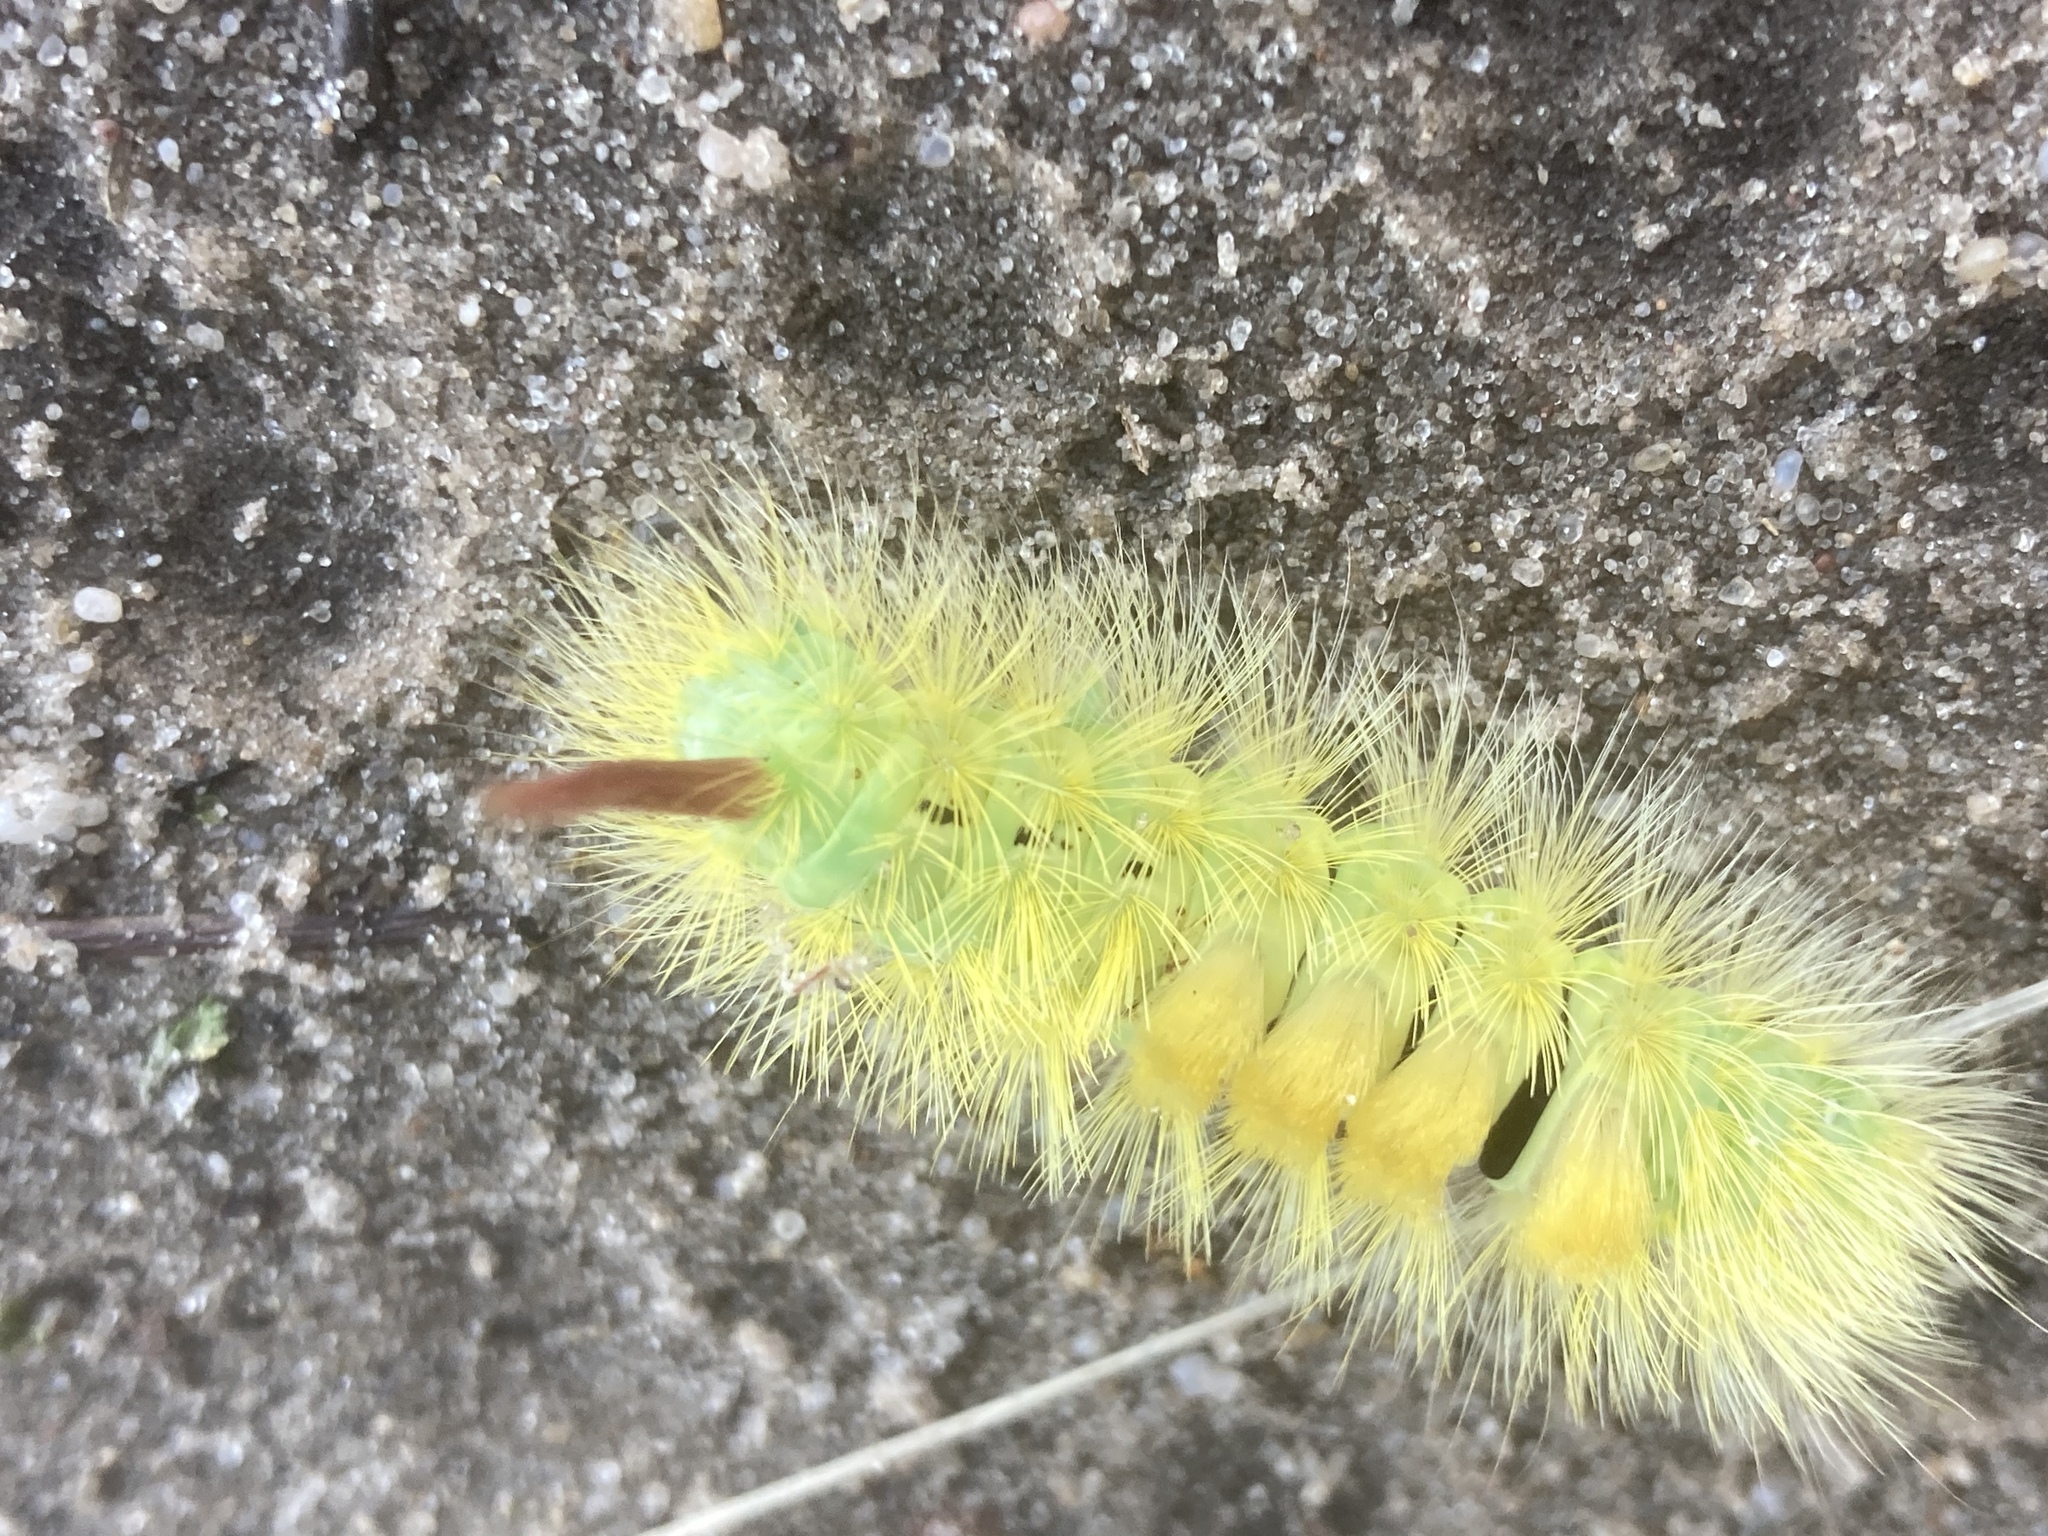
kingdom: Animalia
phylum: Arthropoda
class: Insecta
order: Lepidoptera
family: Erebidae
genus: Calliteara
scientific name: Calliteara pudibunda
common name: Pale tussock
